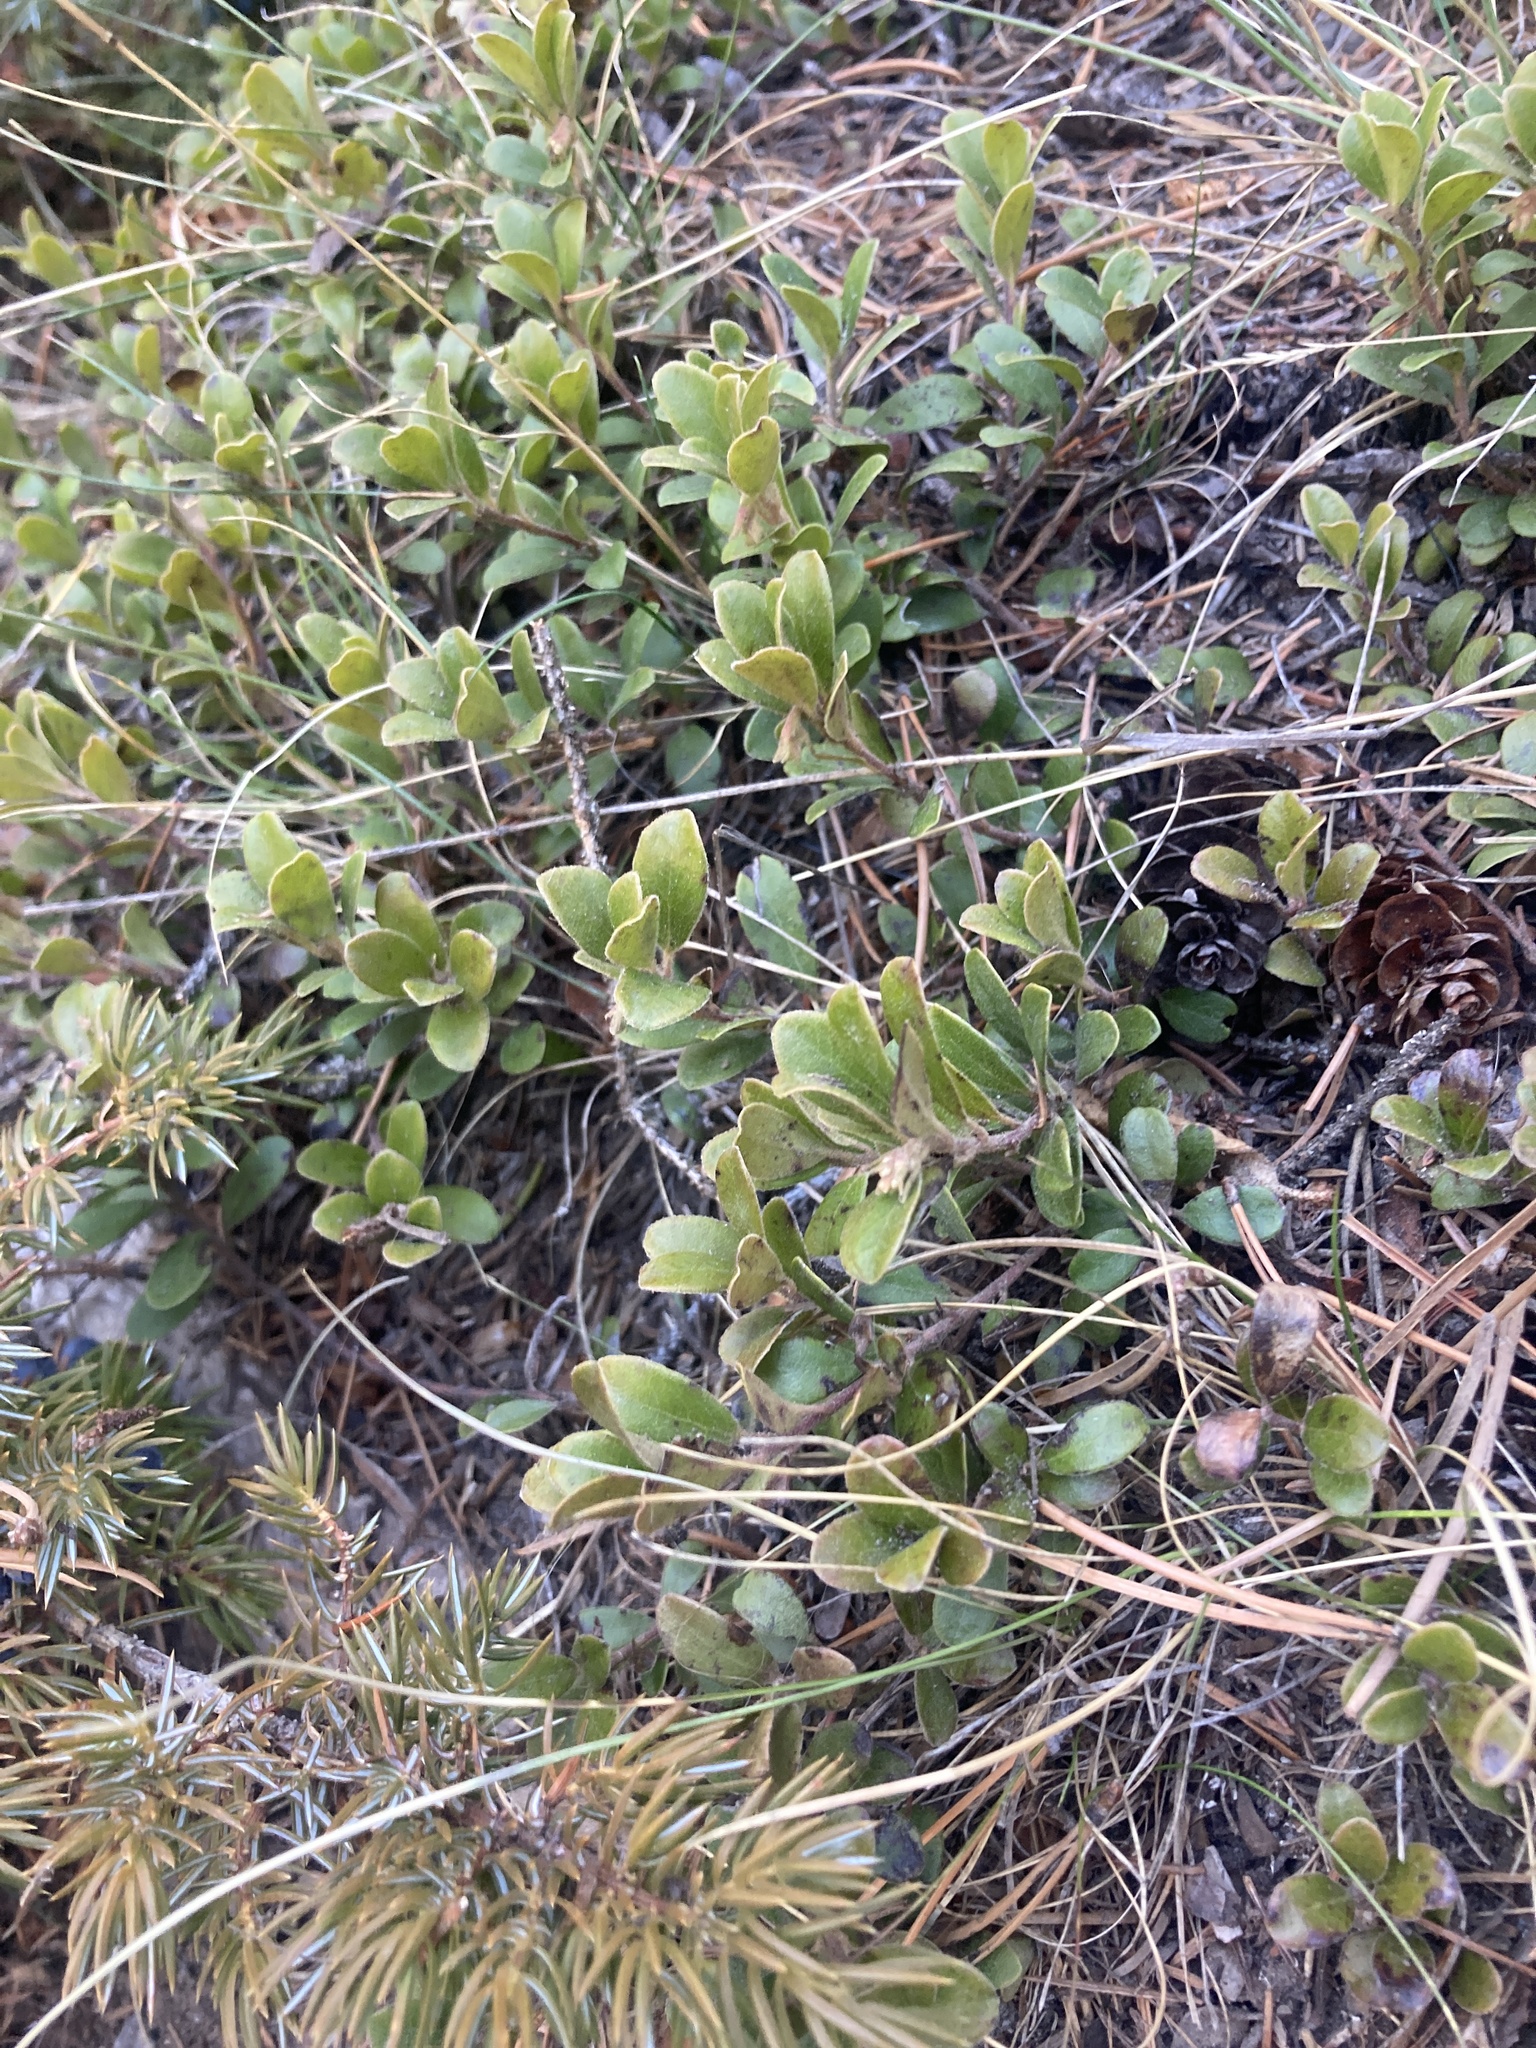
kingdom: Plantae
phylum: Tracheophyta
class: Magnoliopsida
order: Ericales
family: Ericaceae
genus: Arctostaphylos
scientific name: Arctostaphylos uva-ursi
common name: Bearberry
